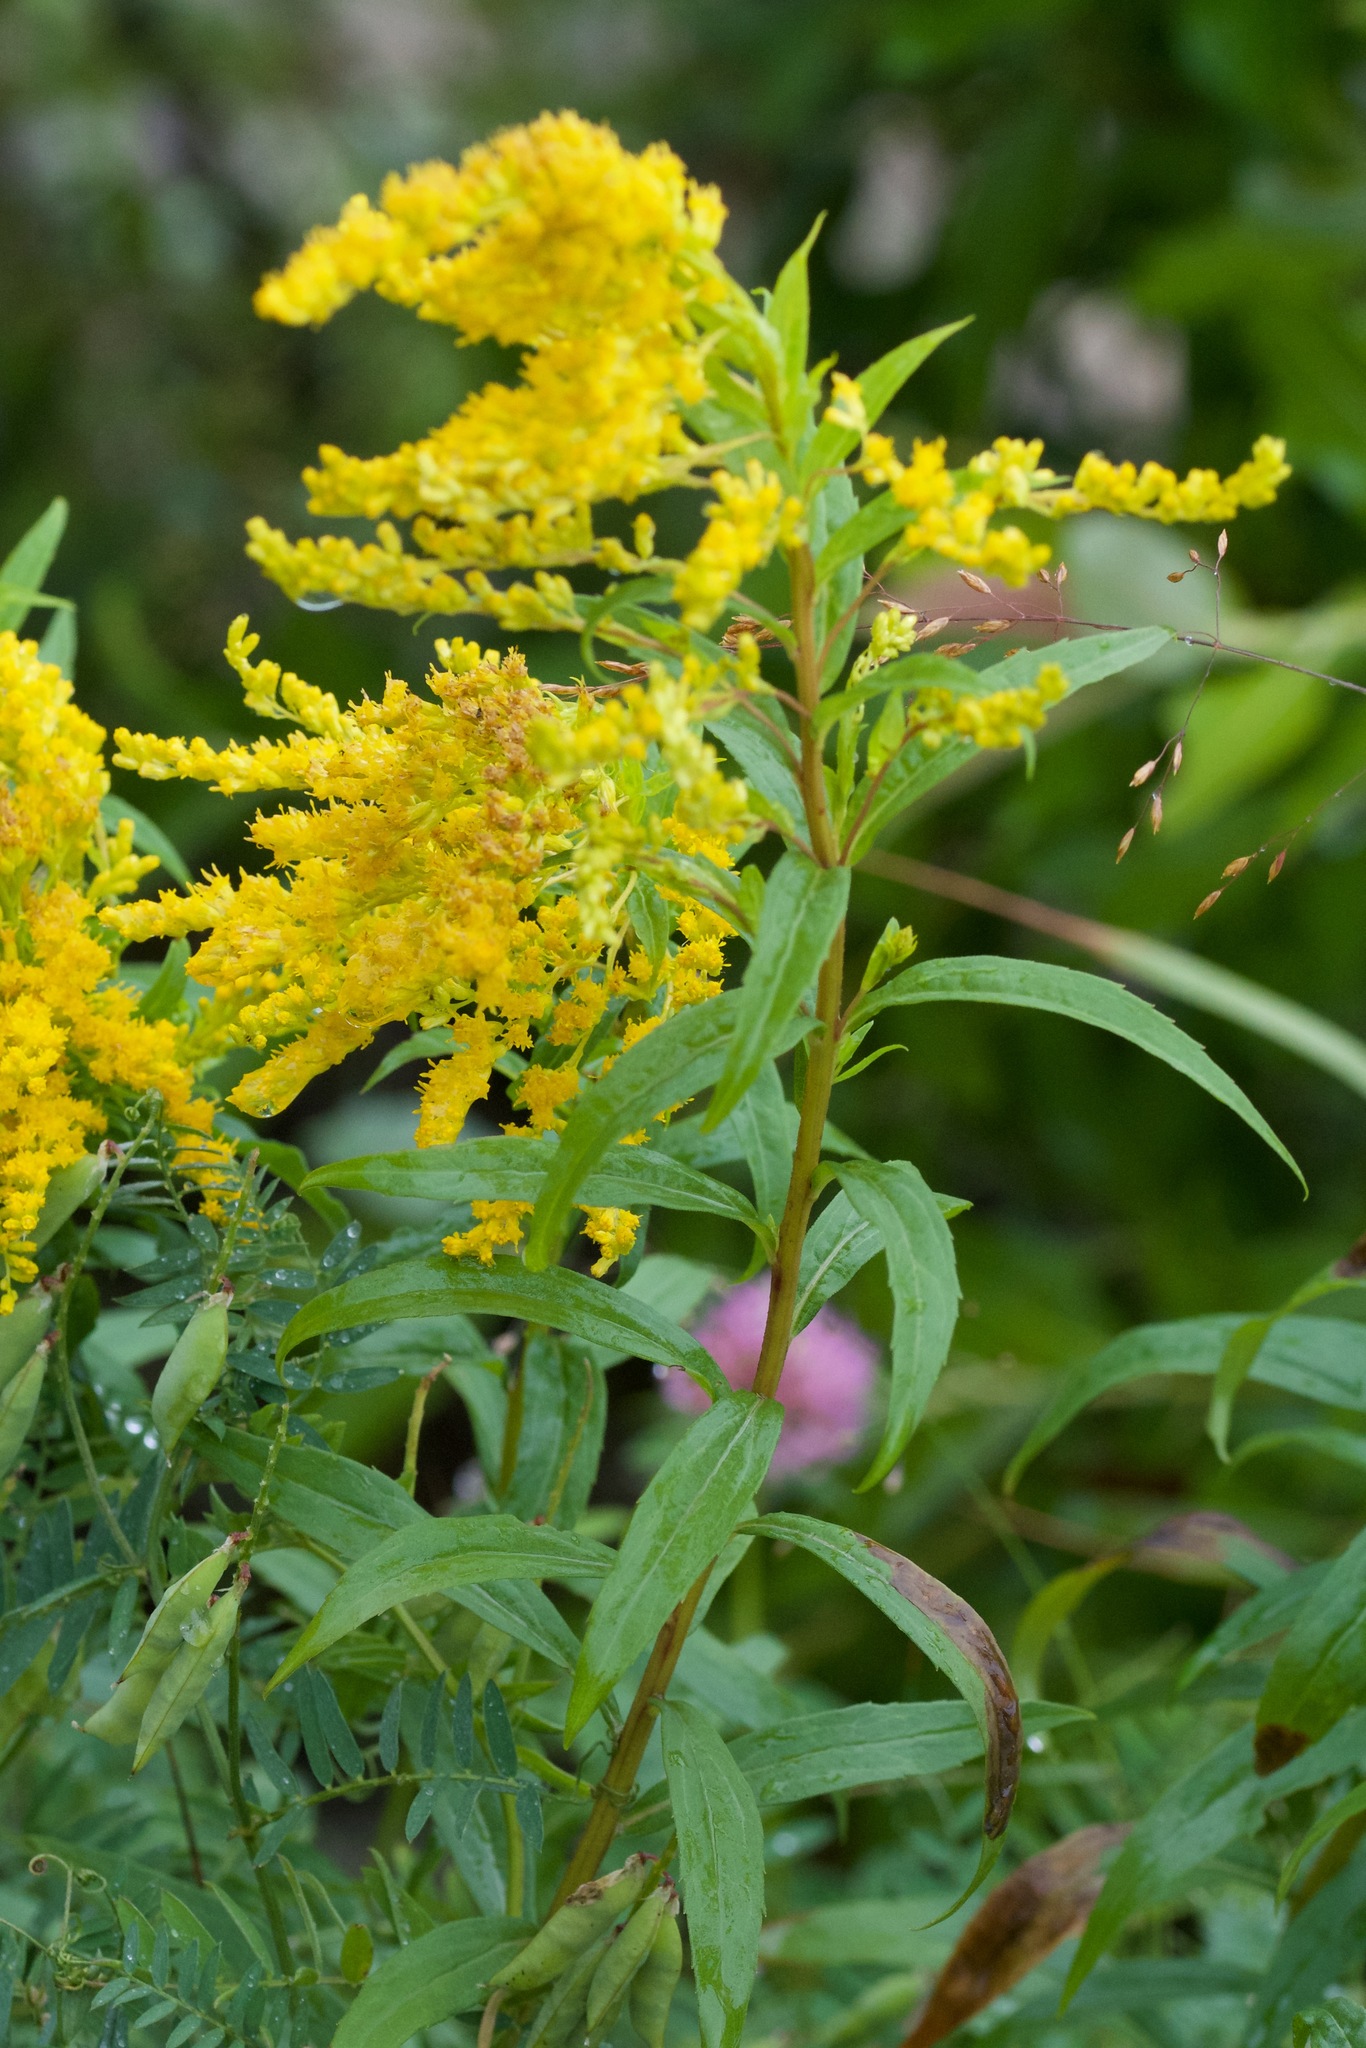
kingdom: Plantae
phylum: Tracheophyta
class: Magnoliopsida
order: Asterales
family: Asteraceae
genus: Solidago
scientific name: Solidago juncea
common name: Early goldenrod
